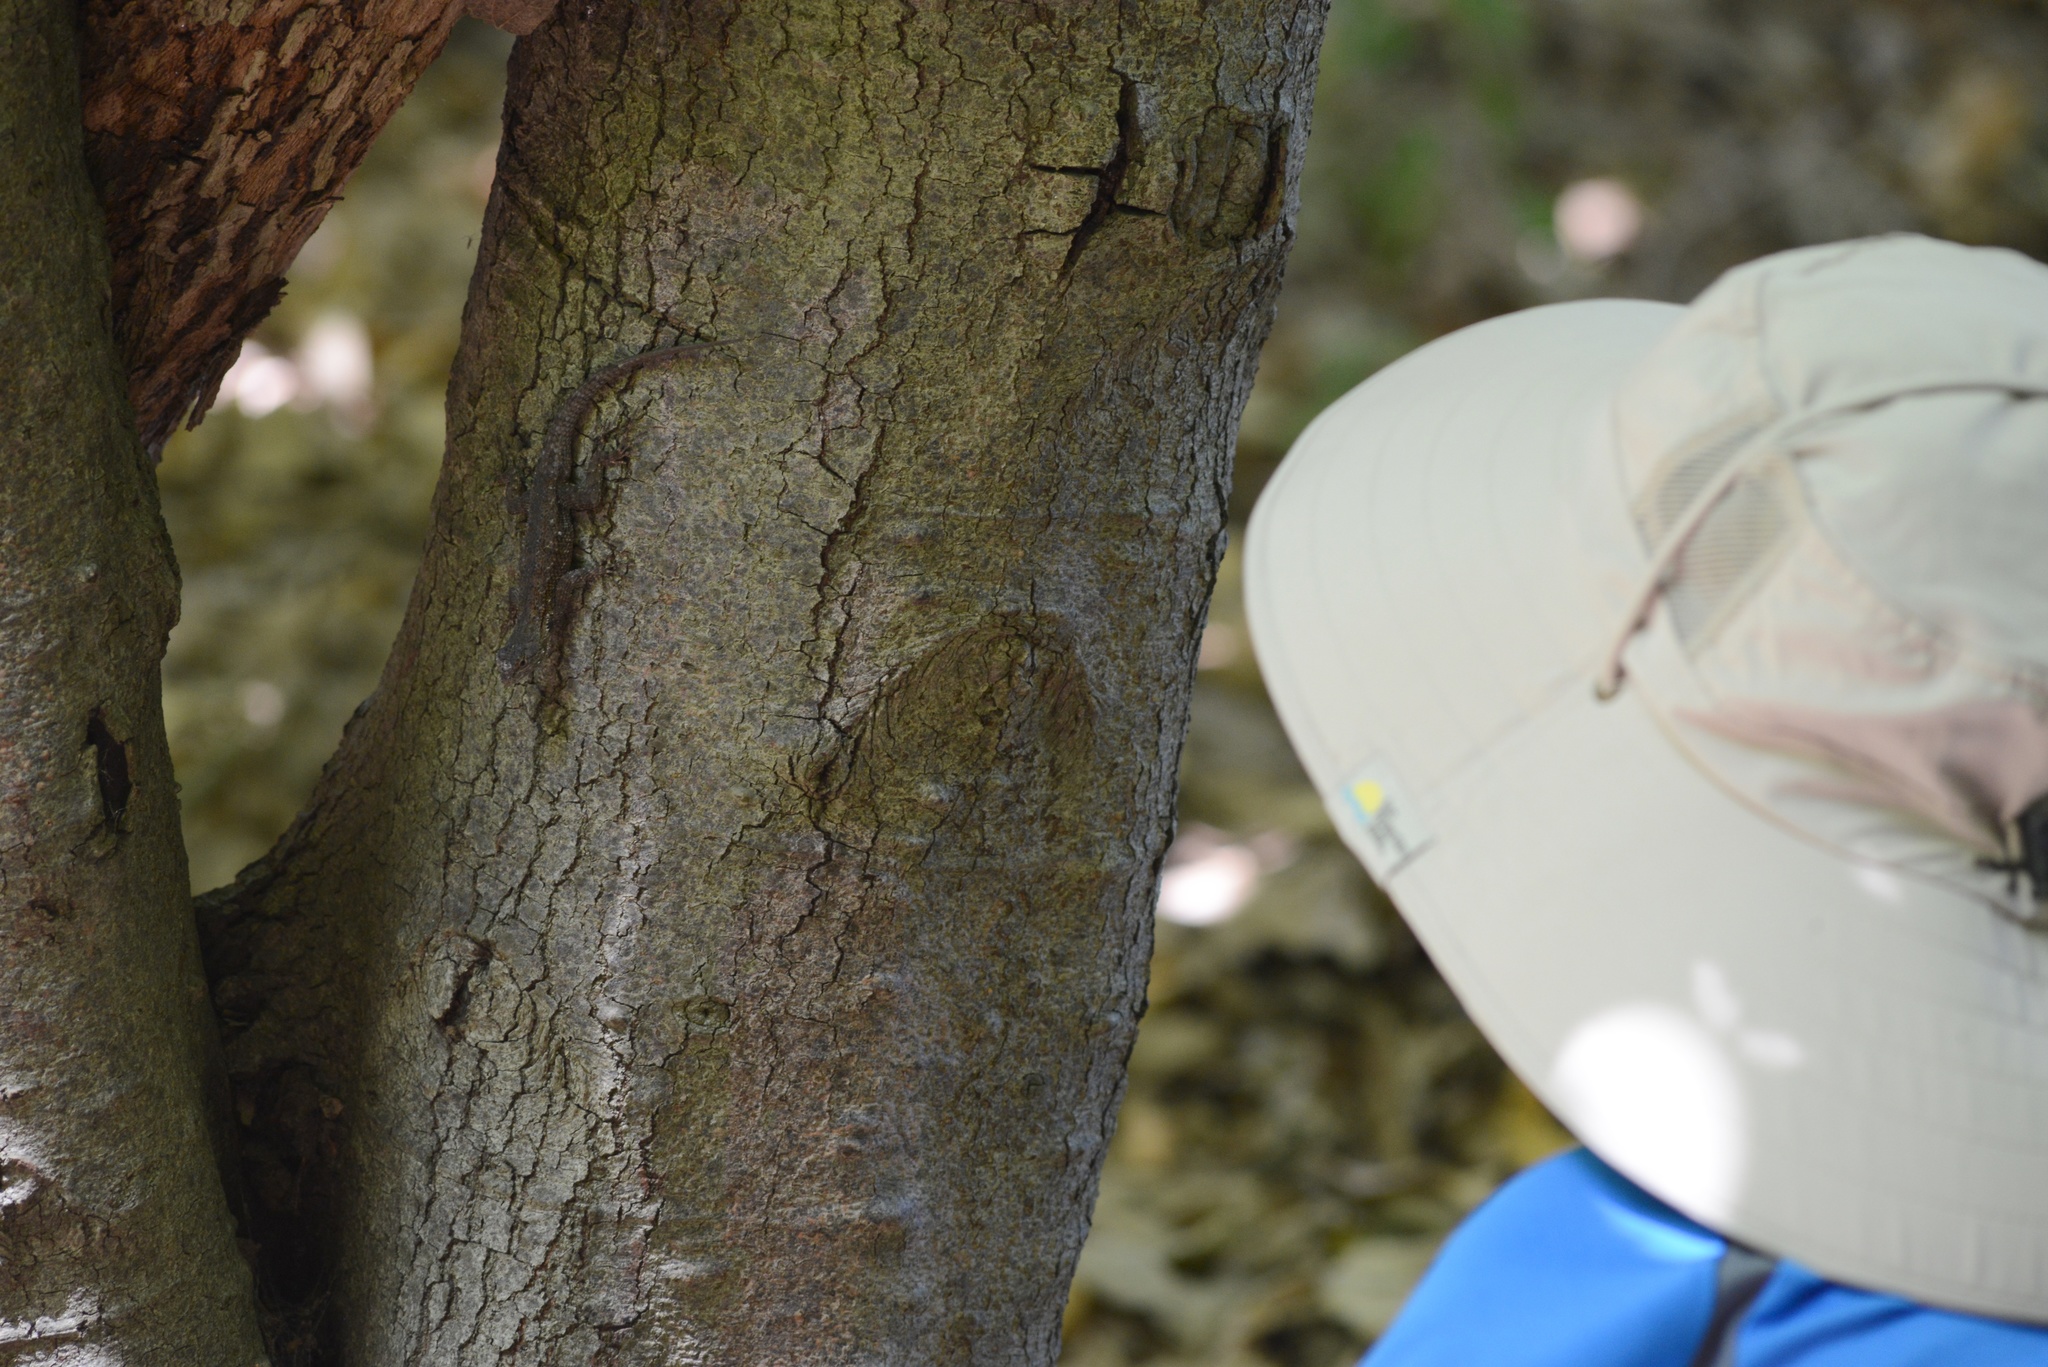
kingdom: Animalia
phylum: Chordata
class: Squamata
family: Phrynosomatidae
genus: Sceloporus
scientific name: Sceloporus occidentalis
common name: Western fence lizard
